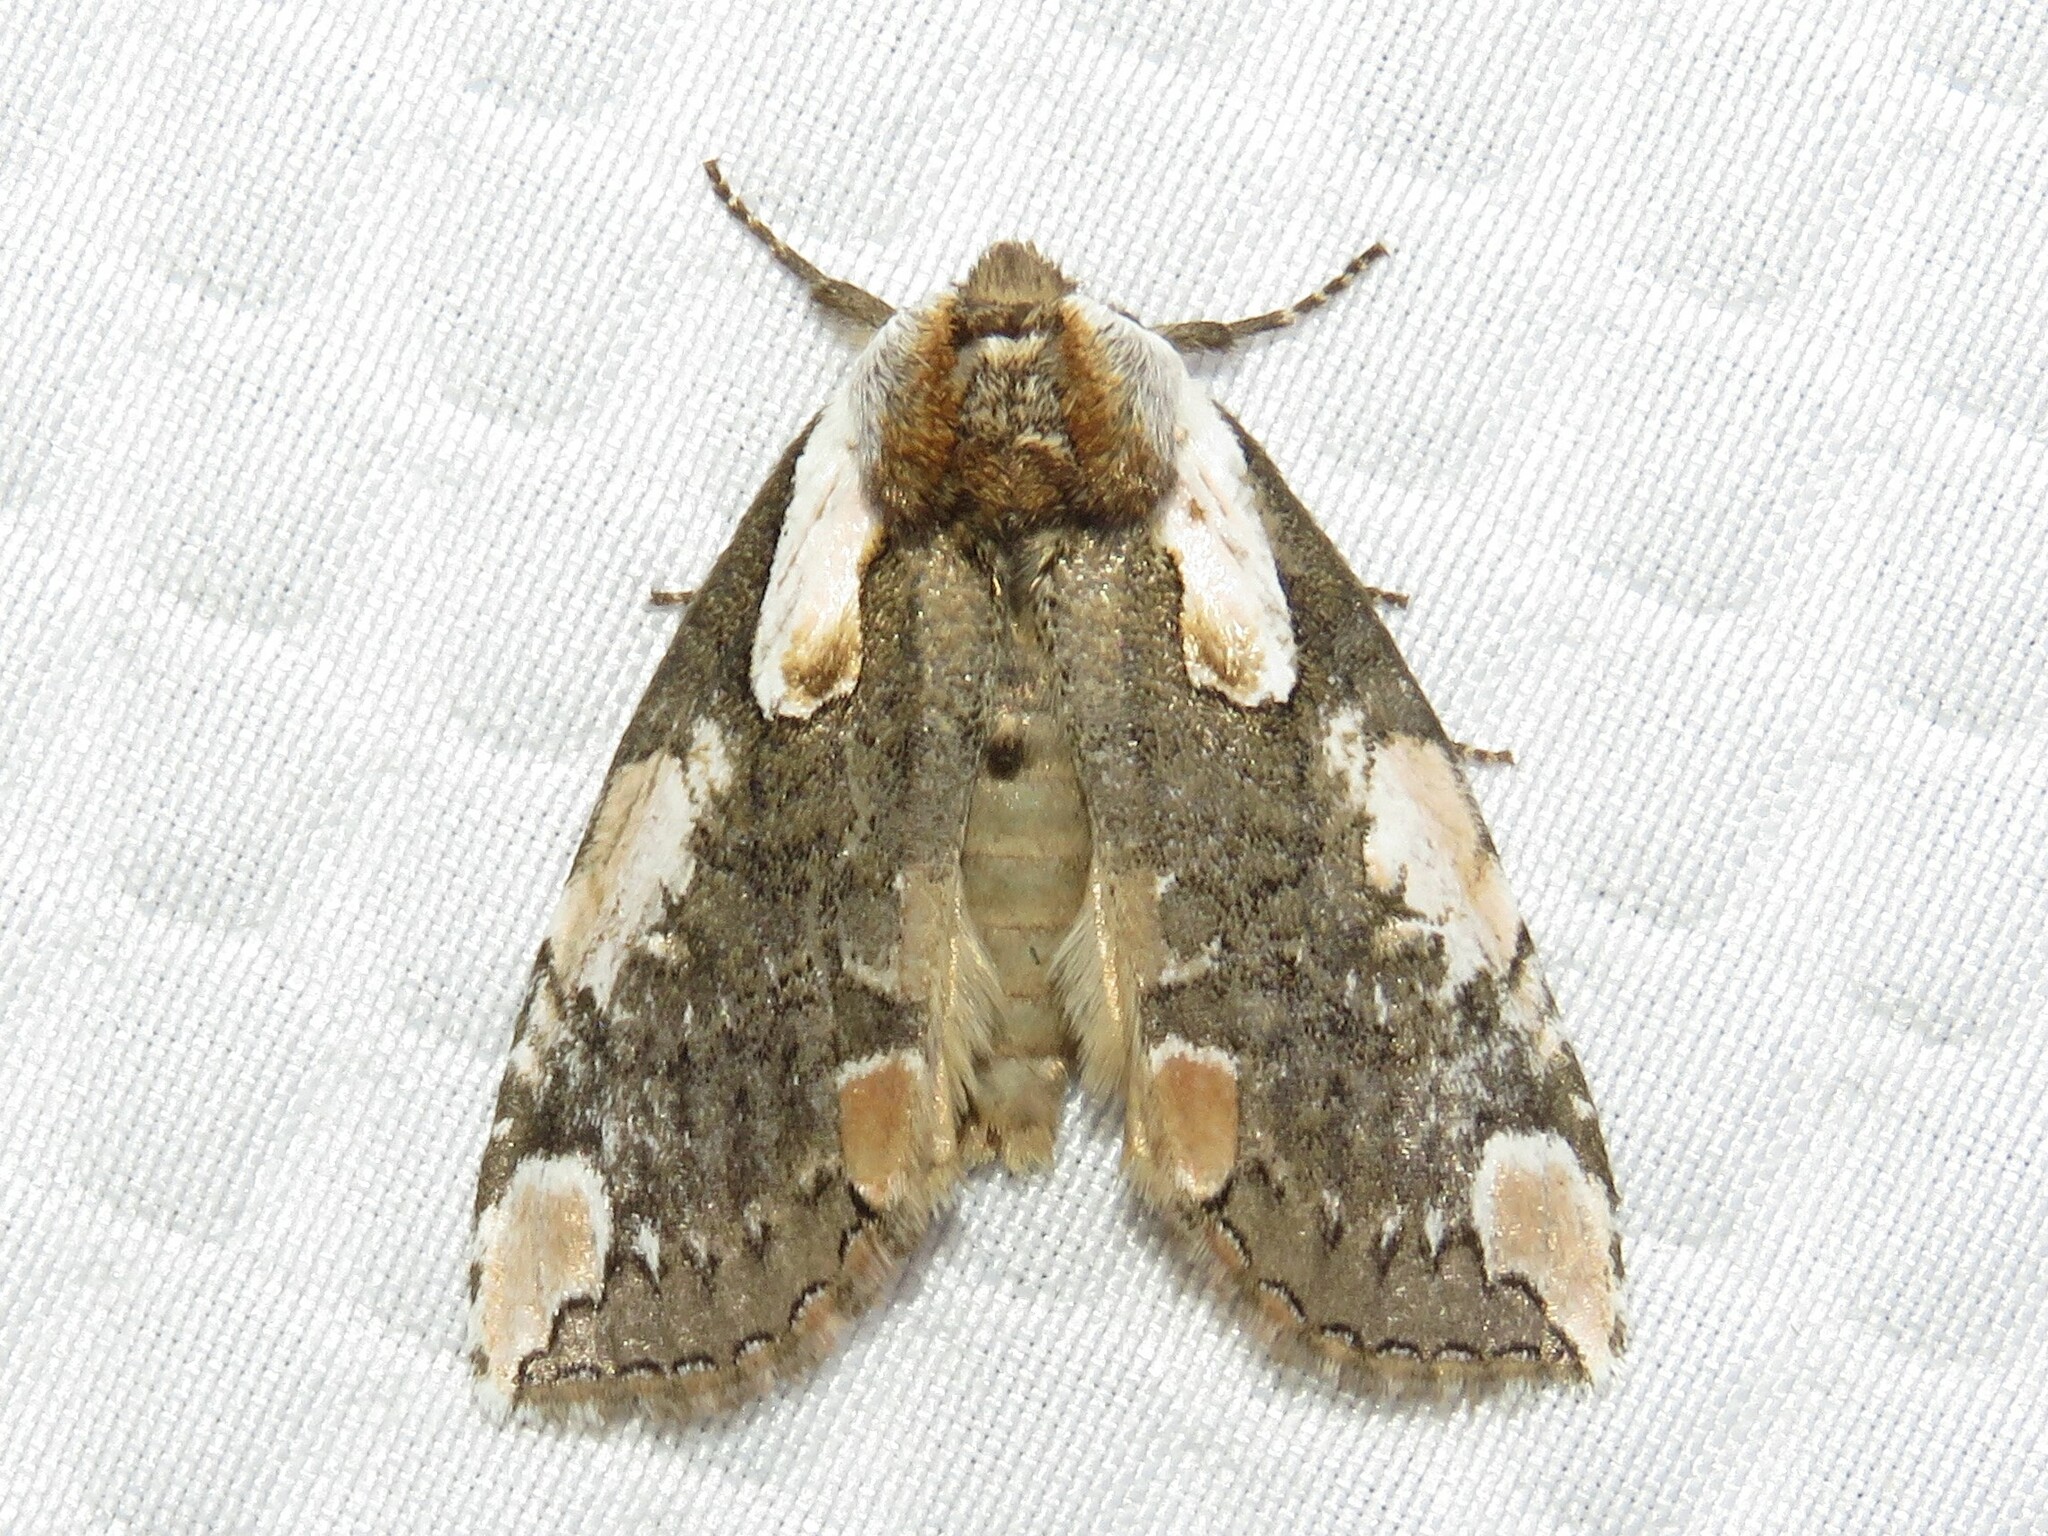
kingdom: Animalia
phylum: Arthropoda
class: Insecta
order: Lepidoptera
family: Drepanidae
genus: Euthyatira
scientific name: Euthyatira pudens
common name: Dogwood thyatirid moth
